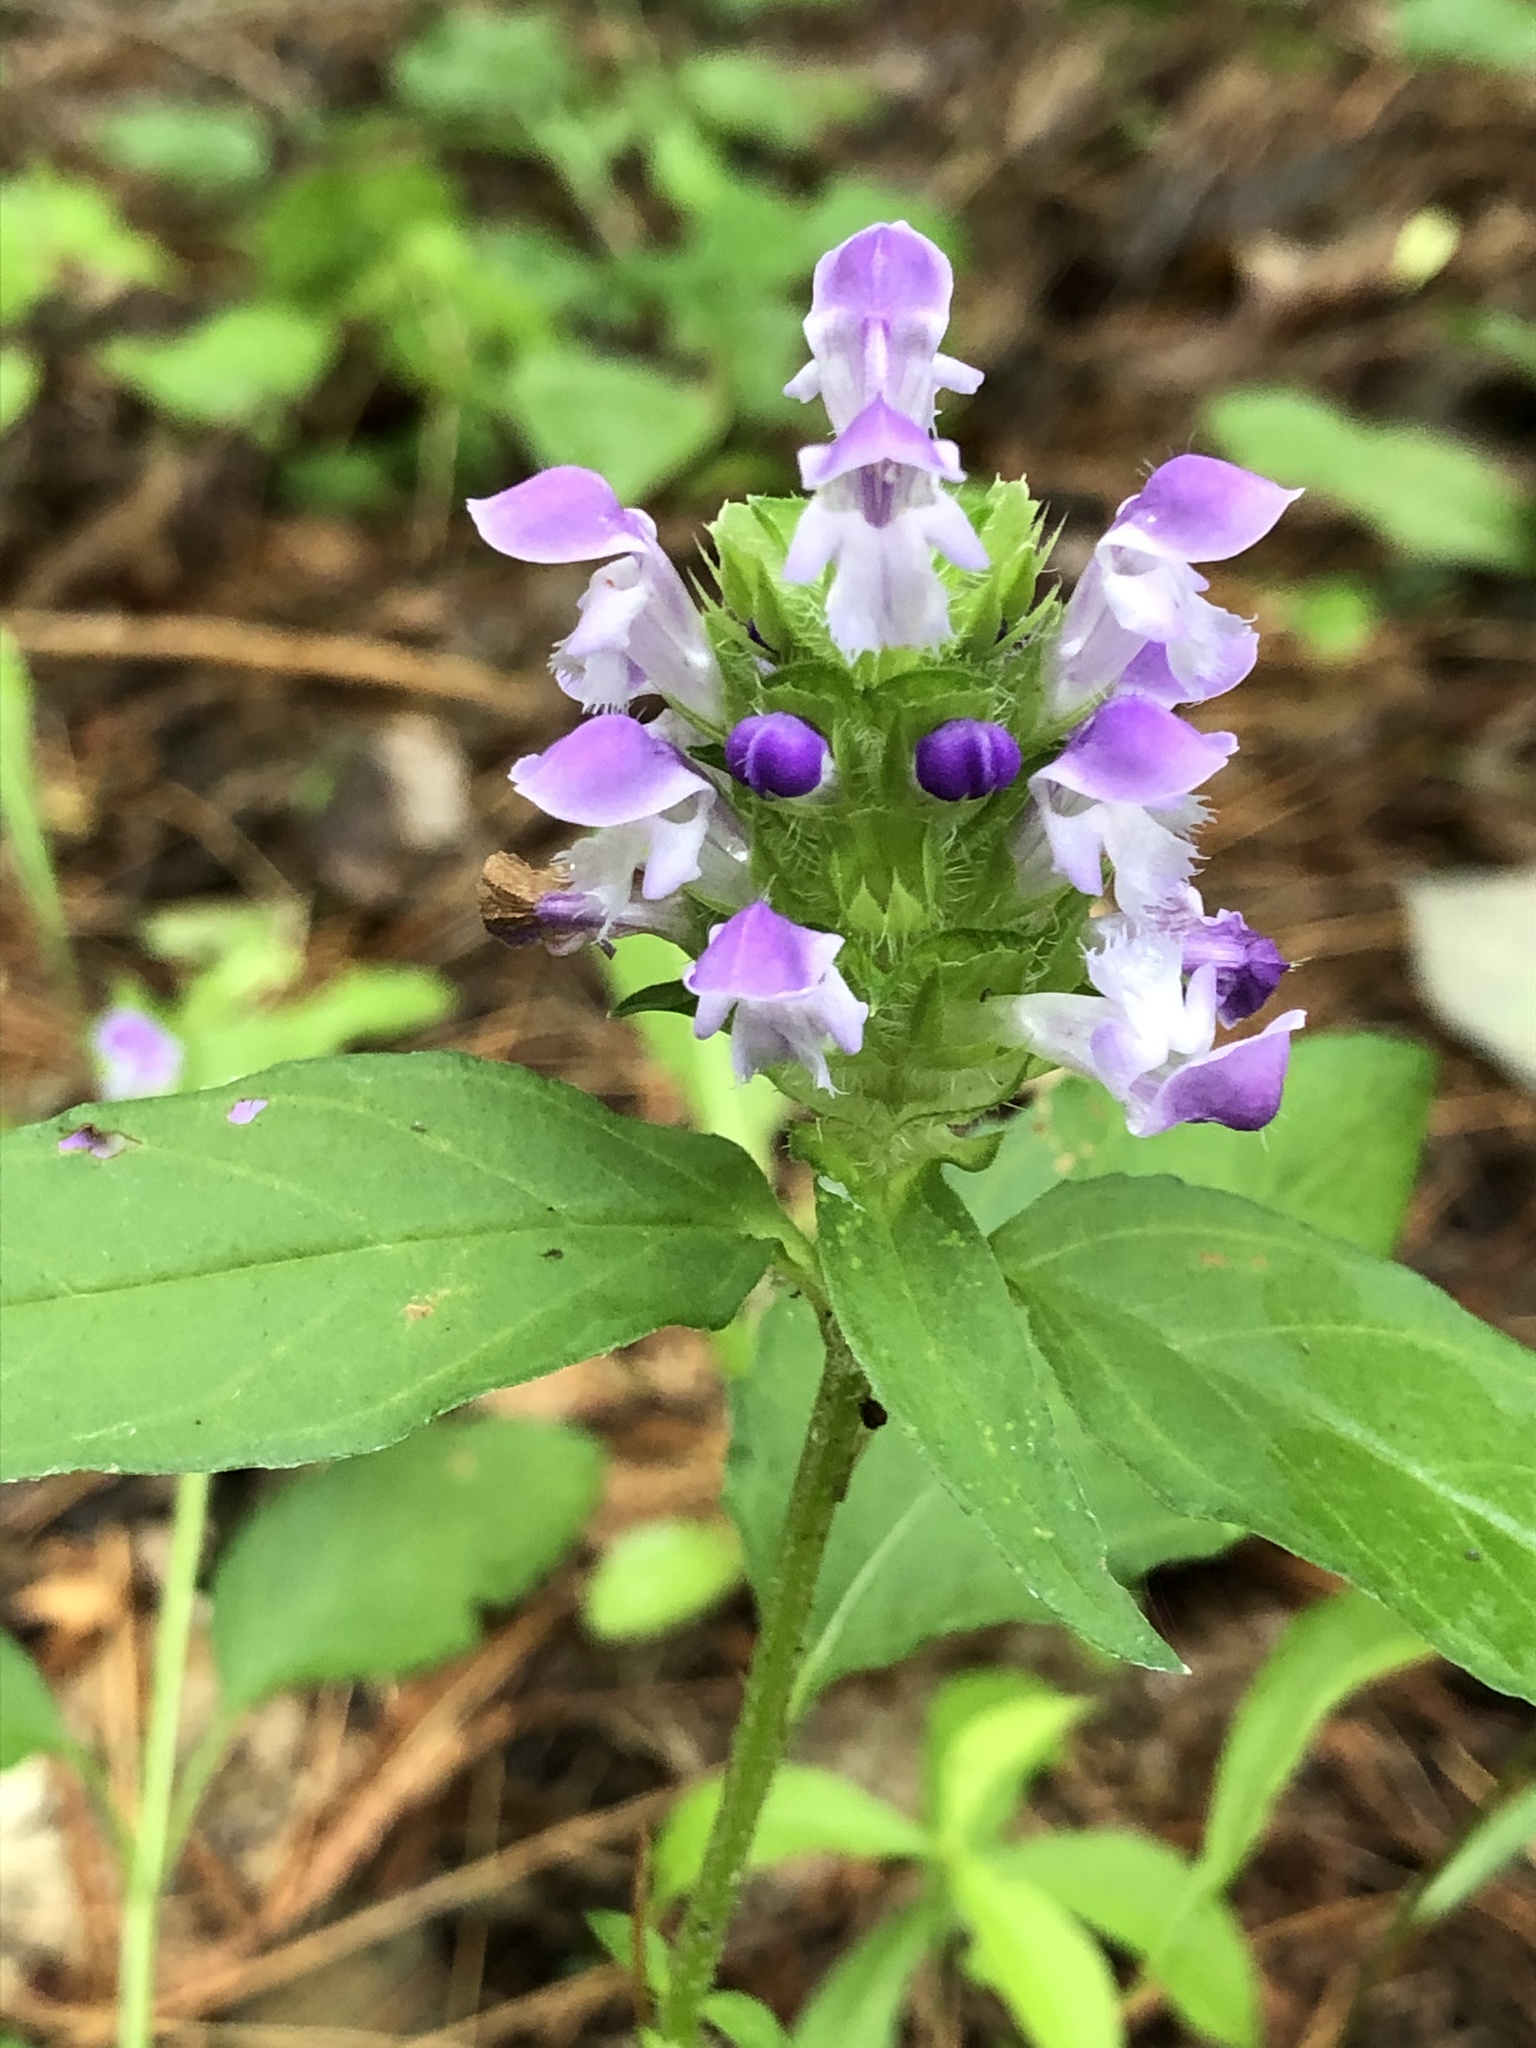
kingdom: Plantae
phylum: Tracheophyta
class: Magnoliopsida
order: Lamiales
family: Lamiaceae
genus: Prunella
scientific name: Prunella vulgaris
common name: Heal-all
